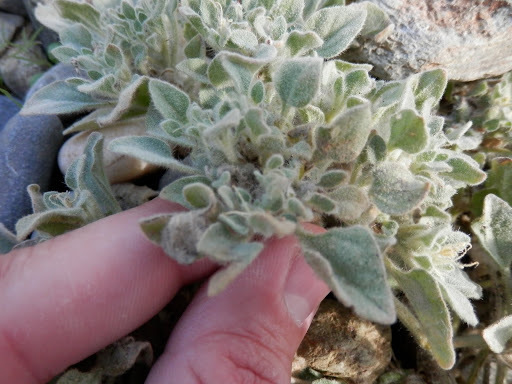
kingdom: Plantae
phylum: Tracheophyta
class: Magnoliopsida
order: Malpighiales
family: Euphorbiaceae
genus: Croton
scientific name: Croton setiger
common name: Dove weed
